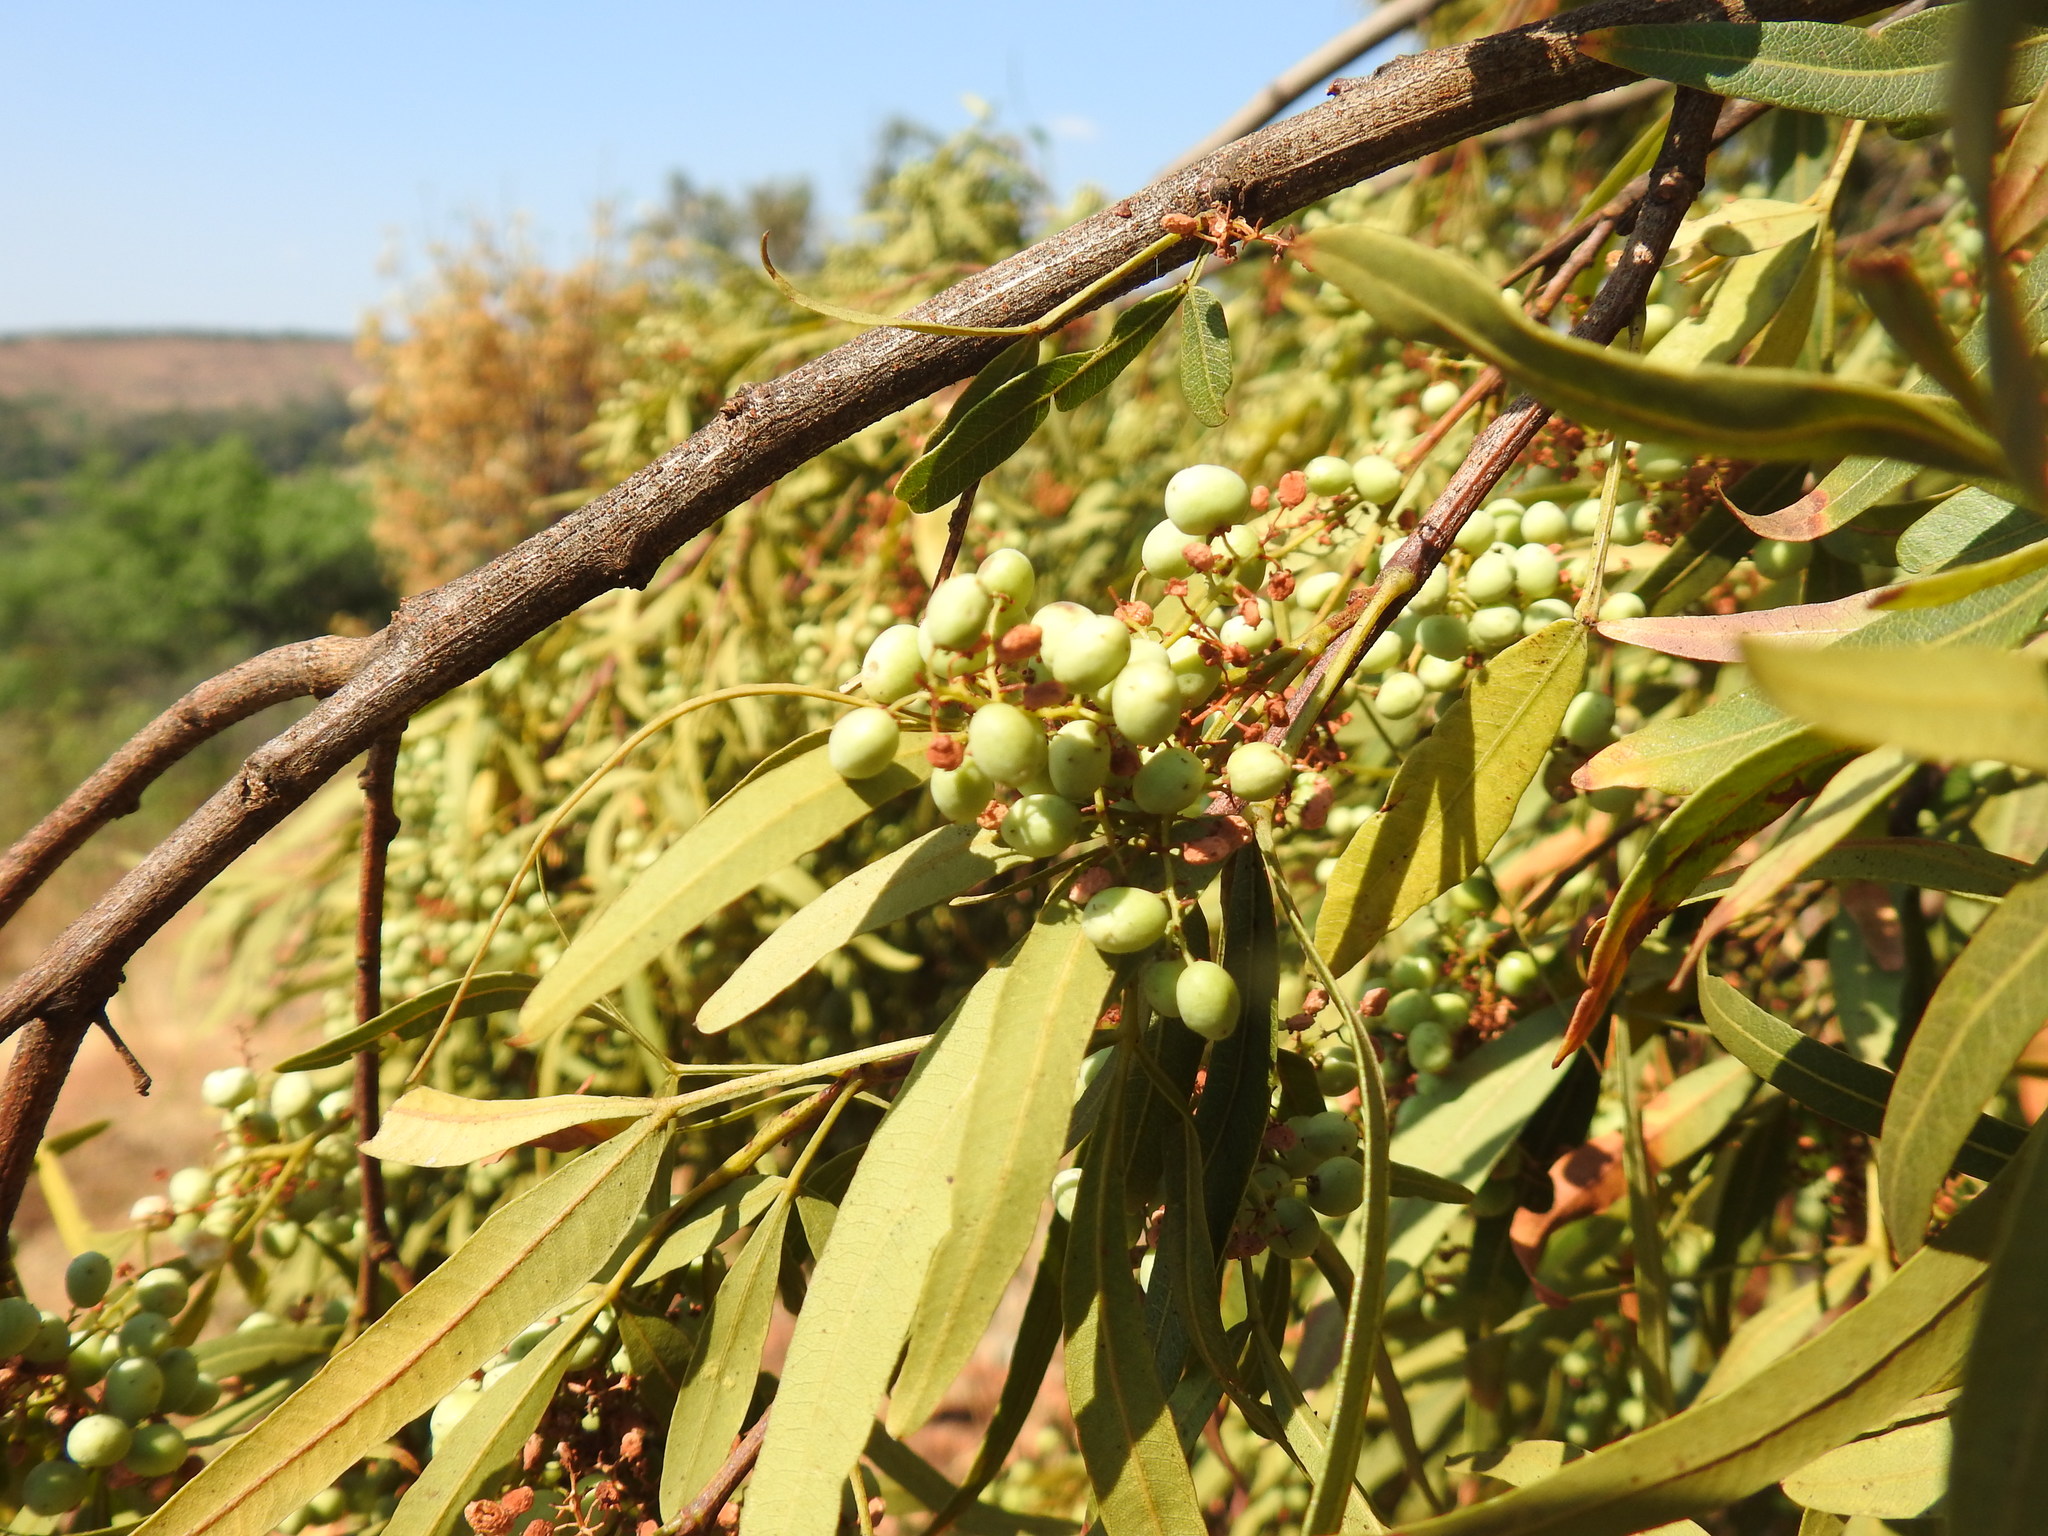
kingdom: Plantae
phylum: Tracheophyta
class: Magnoliopsida
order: Sapindales
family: Anacardiaceae
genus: Searsia
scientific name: Searsia lancea
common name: Cashew
